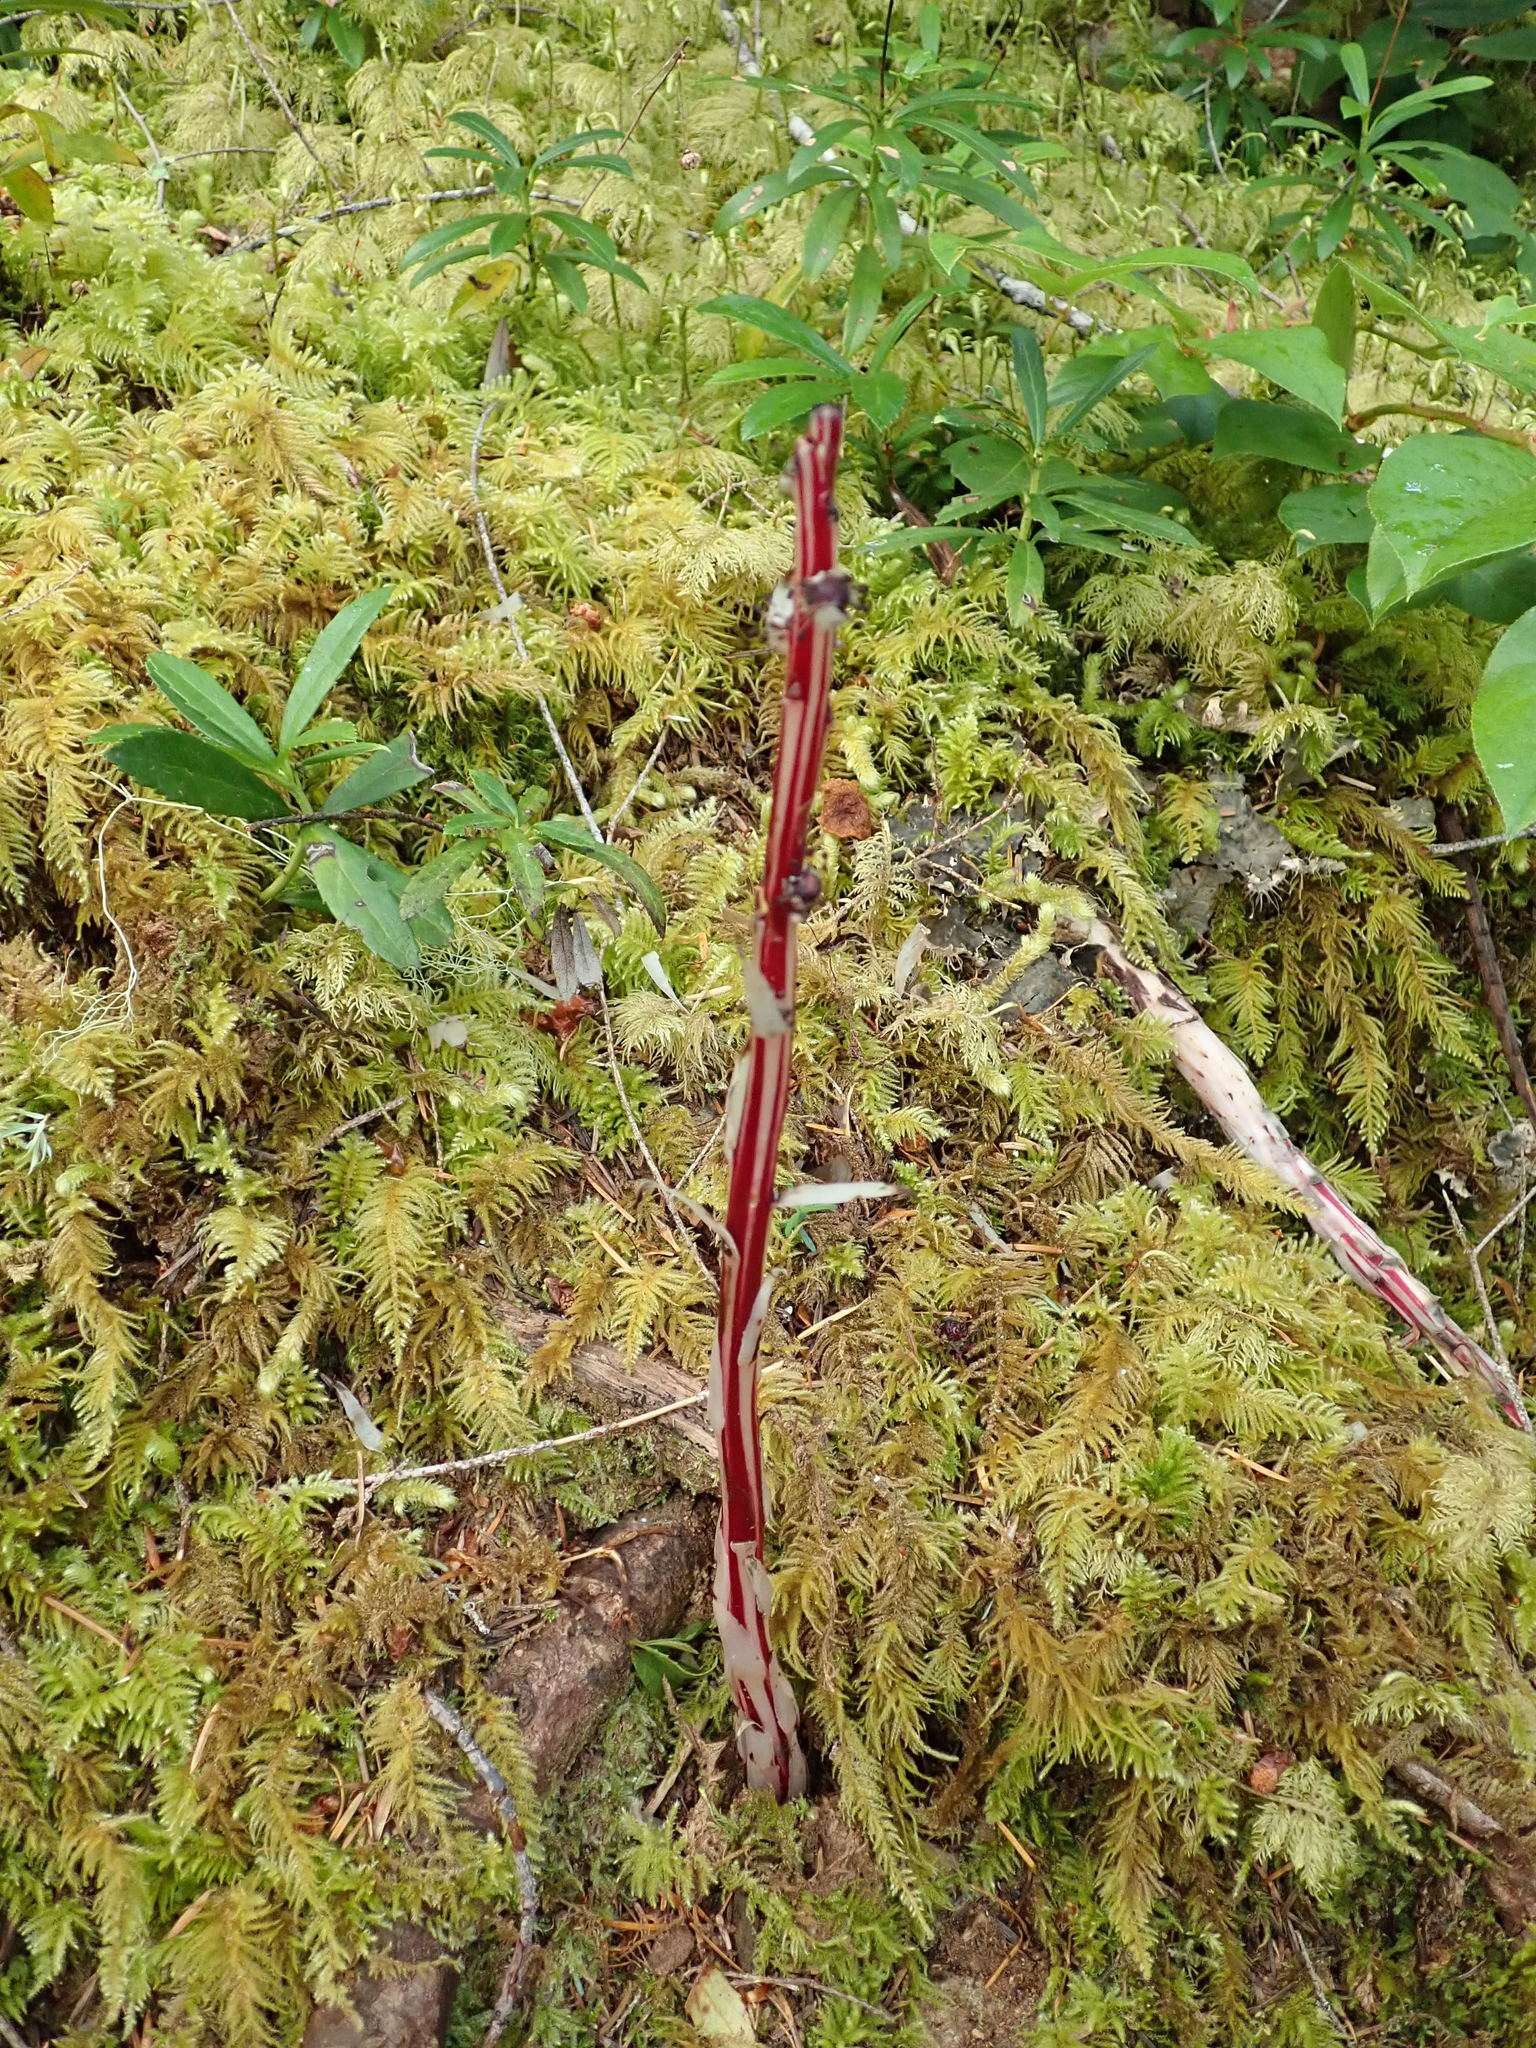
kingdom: Plantae
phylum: Tracheophyta
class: Magnoliopsida
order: Ericales
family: Ericaceae
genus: Allotropa
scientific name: Allotropa virgata
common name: Candy-striped allotropa
